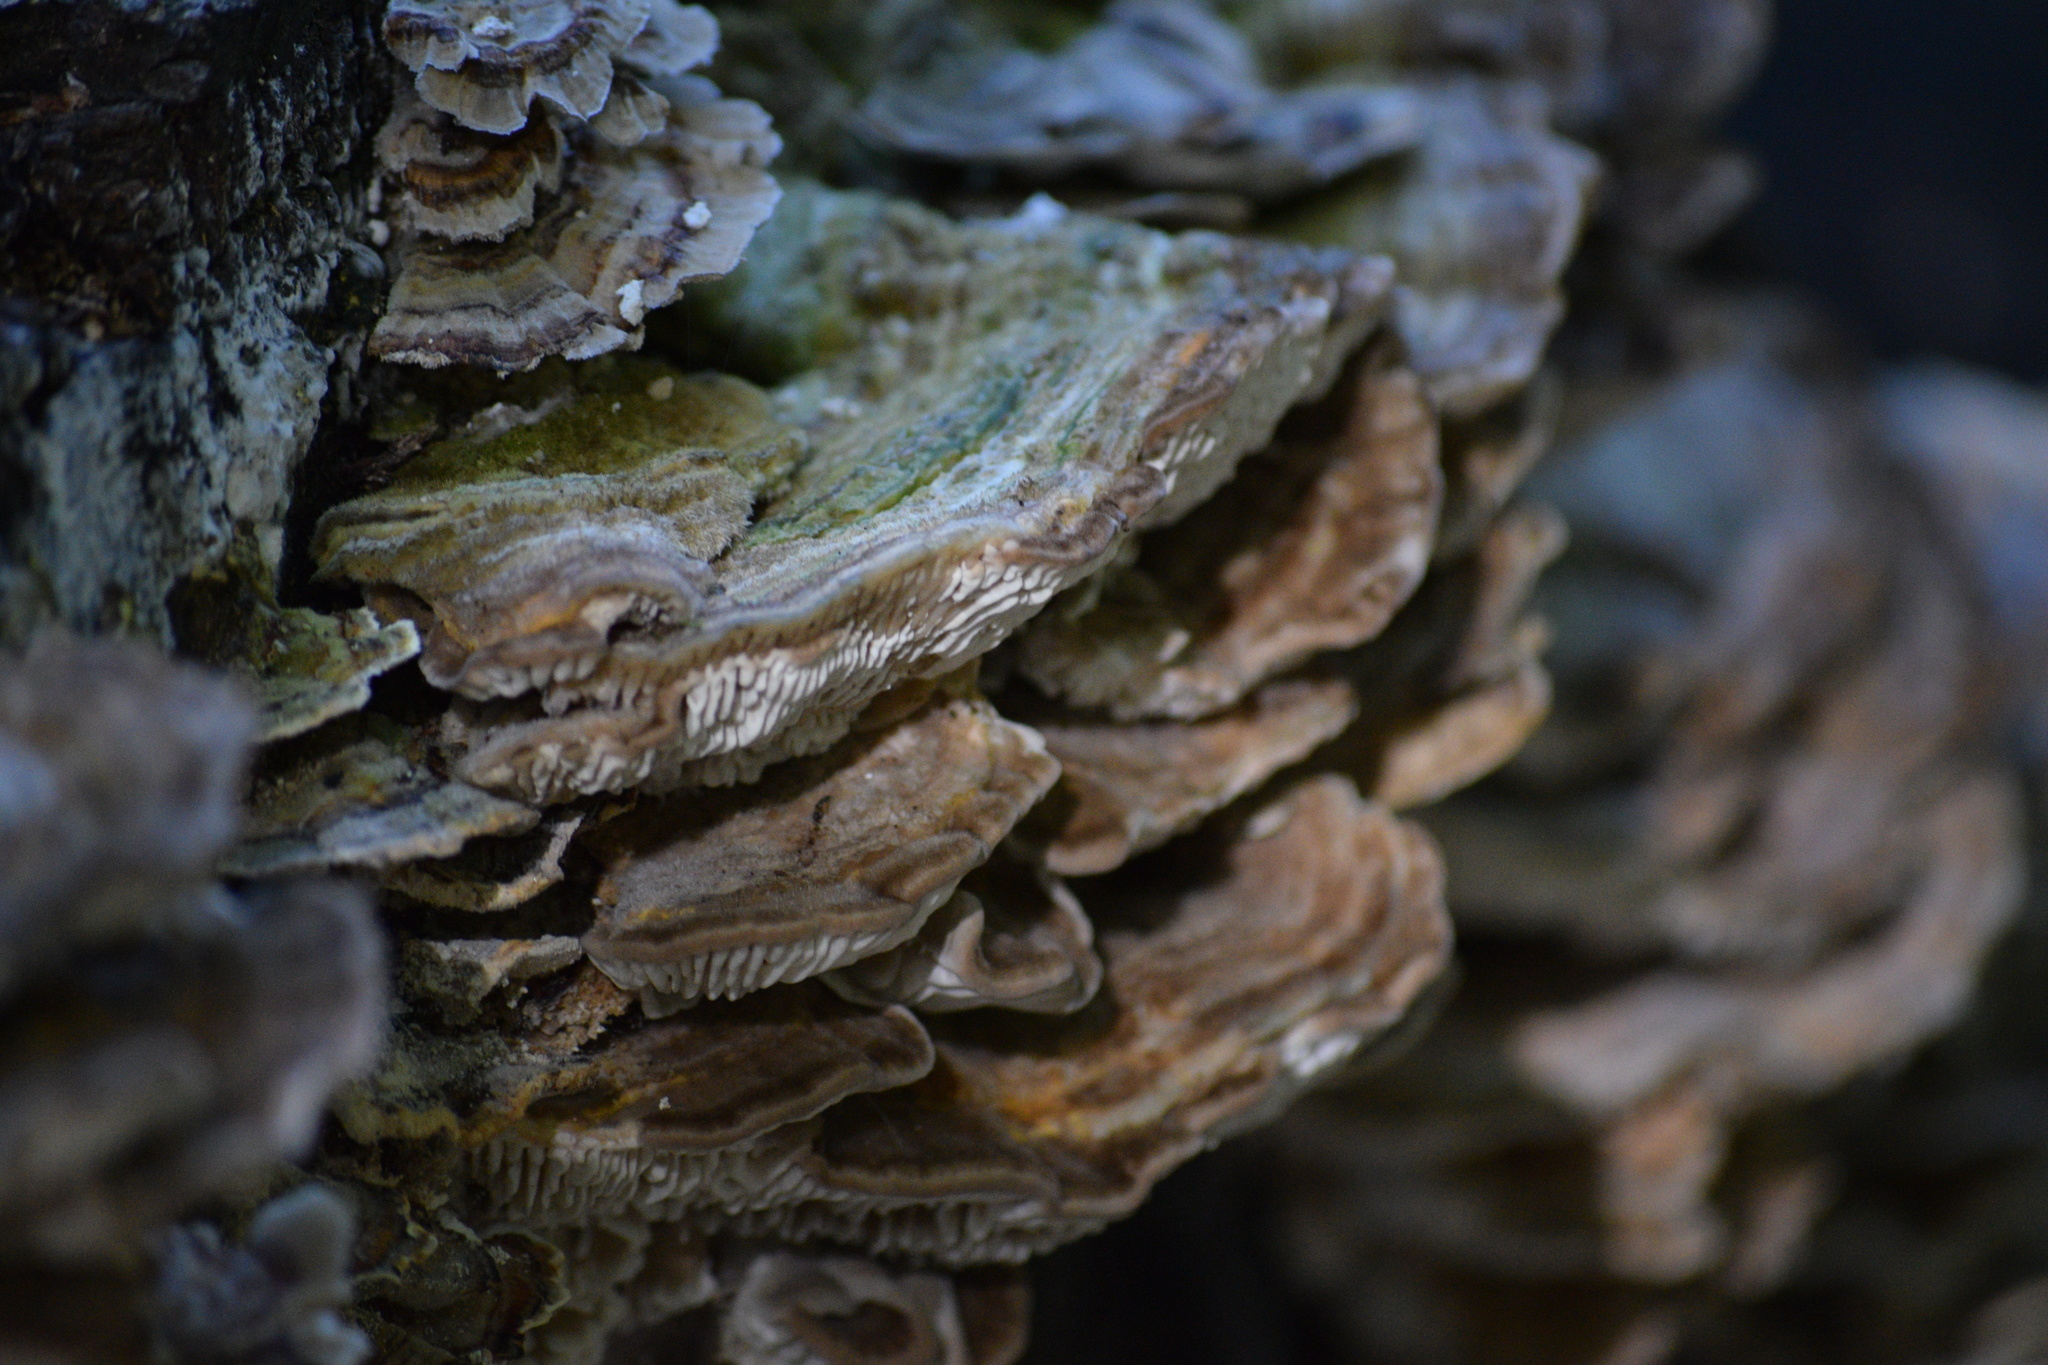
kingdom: Fungi
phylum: Basidiomycota
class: Agaricomycetes
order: Polyporales
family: Polyporaceae
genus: Trametes
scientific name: Trametes versicolor
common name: Turkeytail
